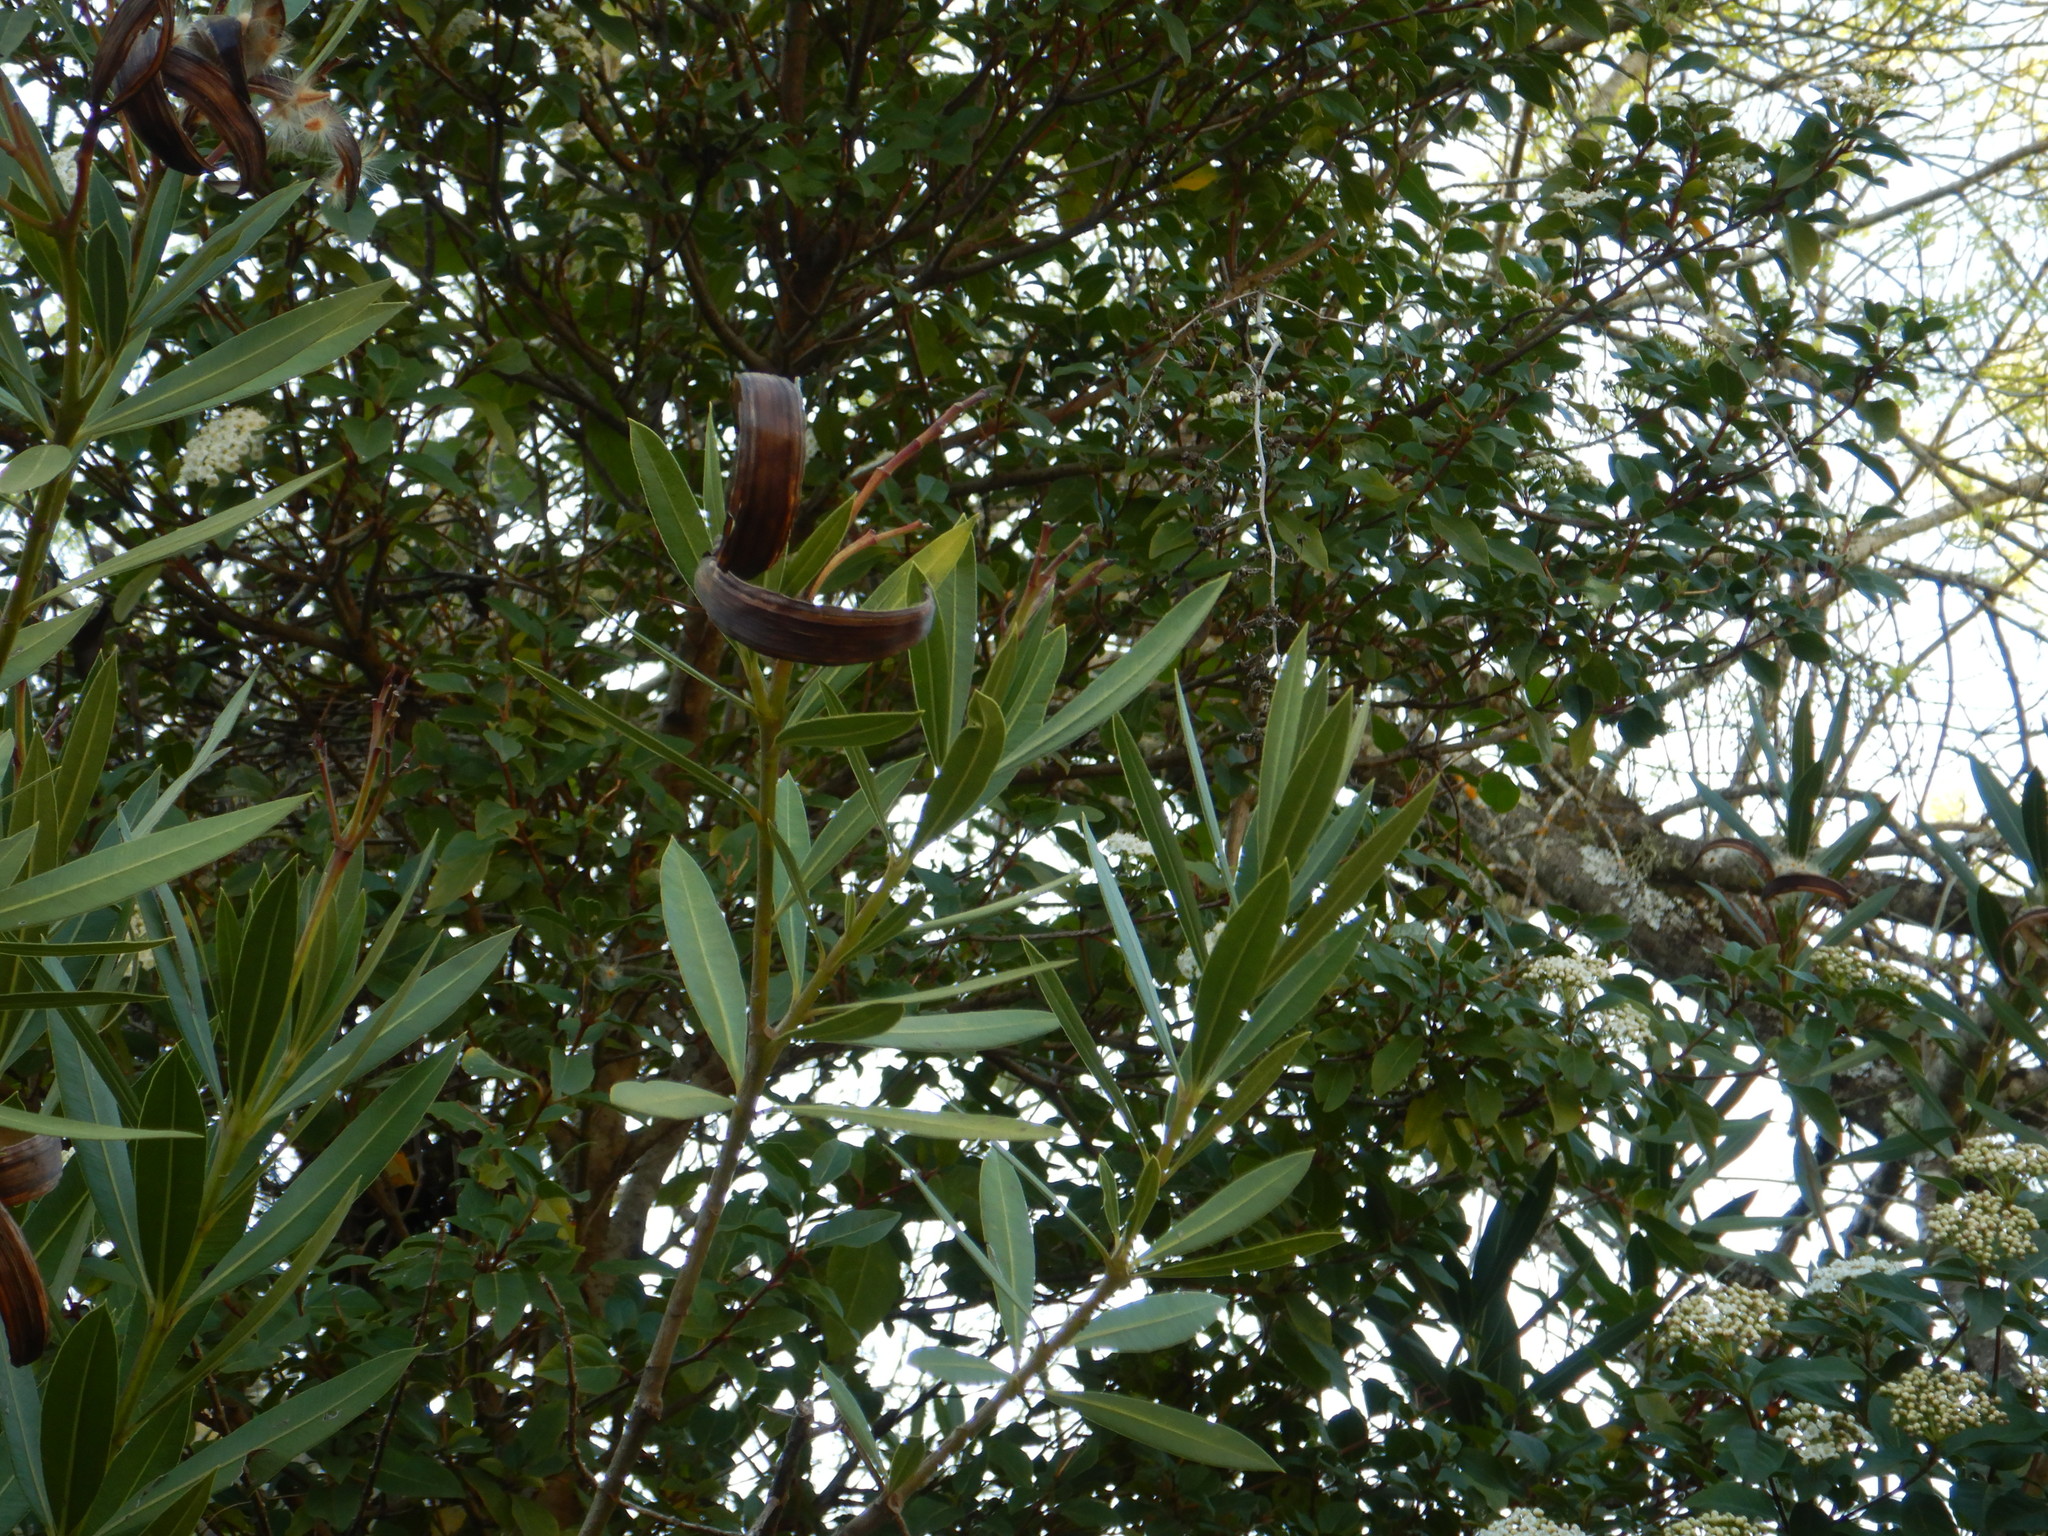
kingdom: Plantae
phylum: Tracheophyta
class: Magnoliopsida
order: Gentianales
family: Apocynaceae
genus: Nerium
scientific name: Nerium oleander
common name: Oleander
